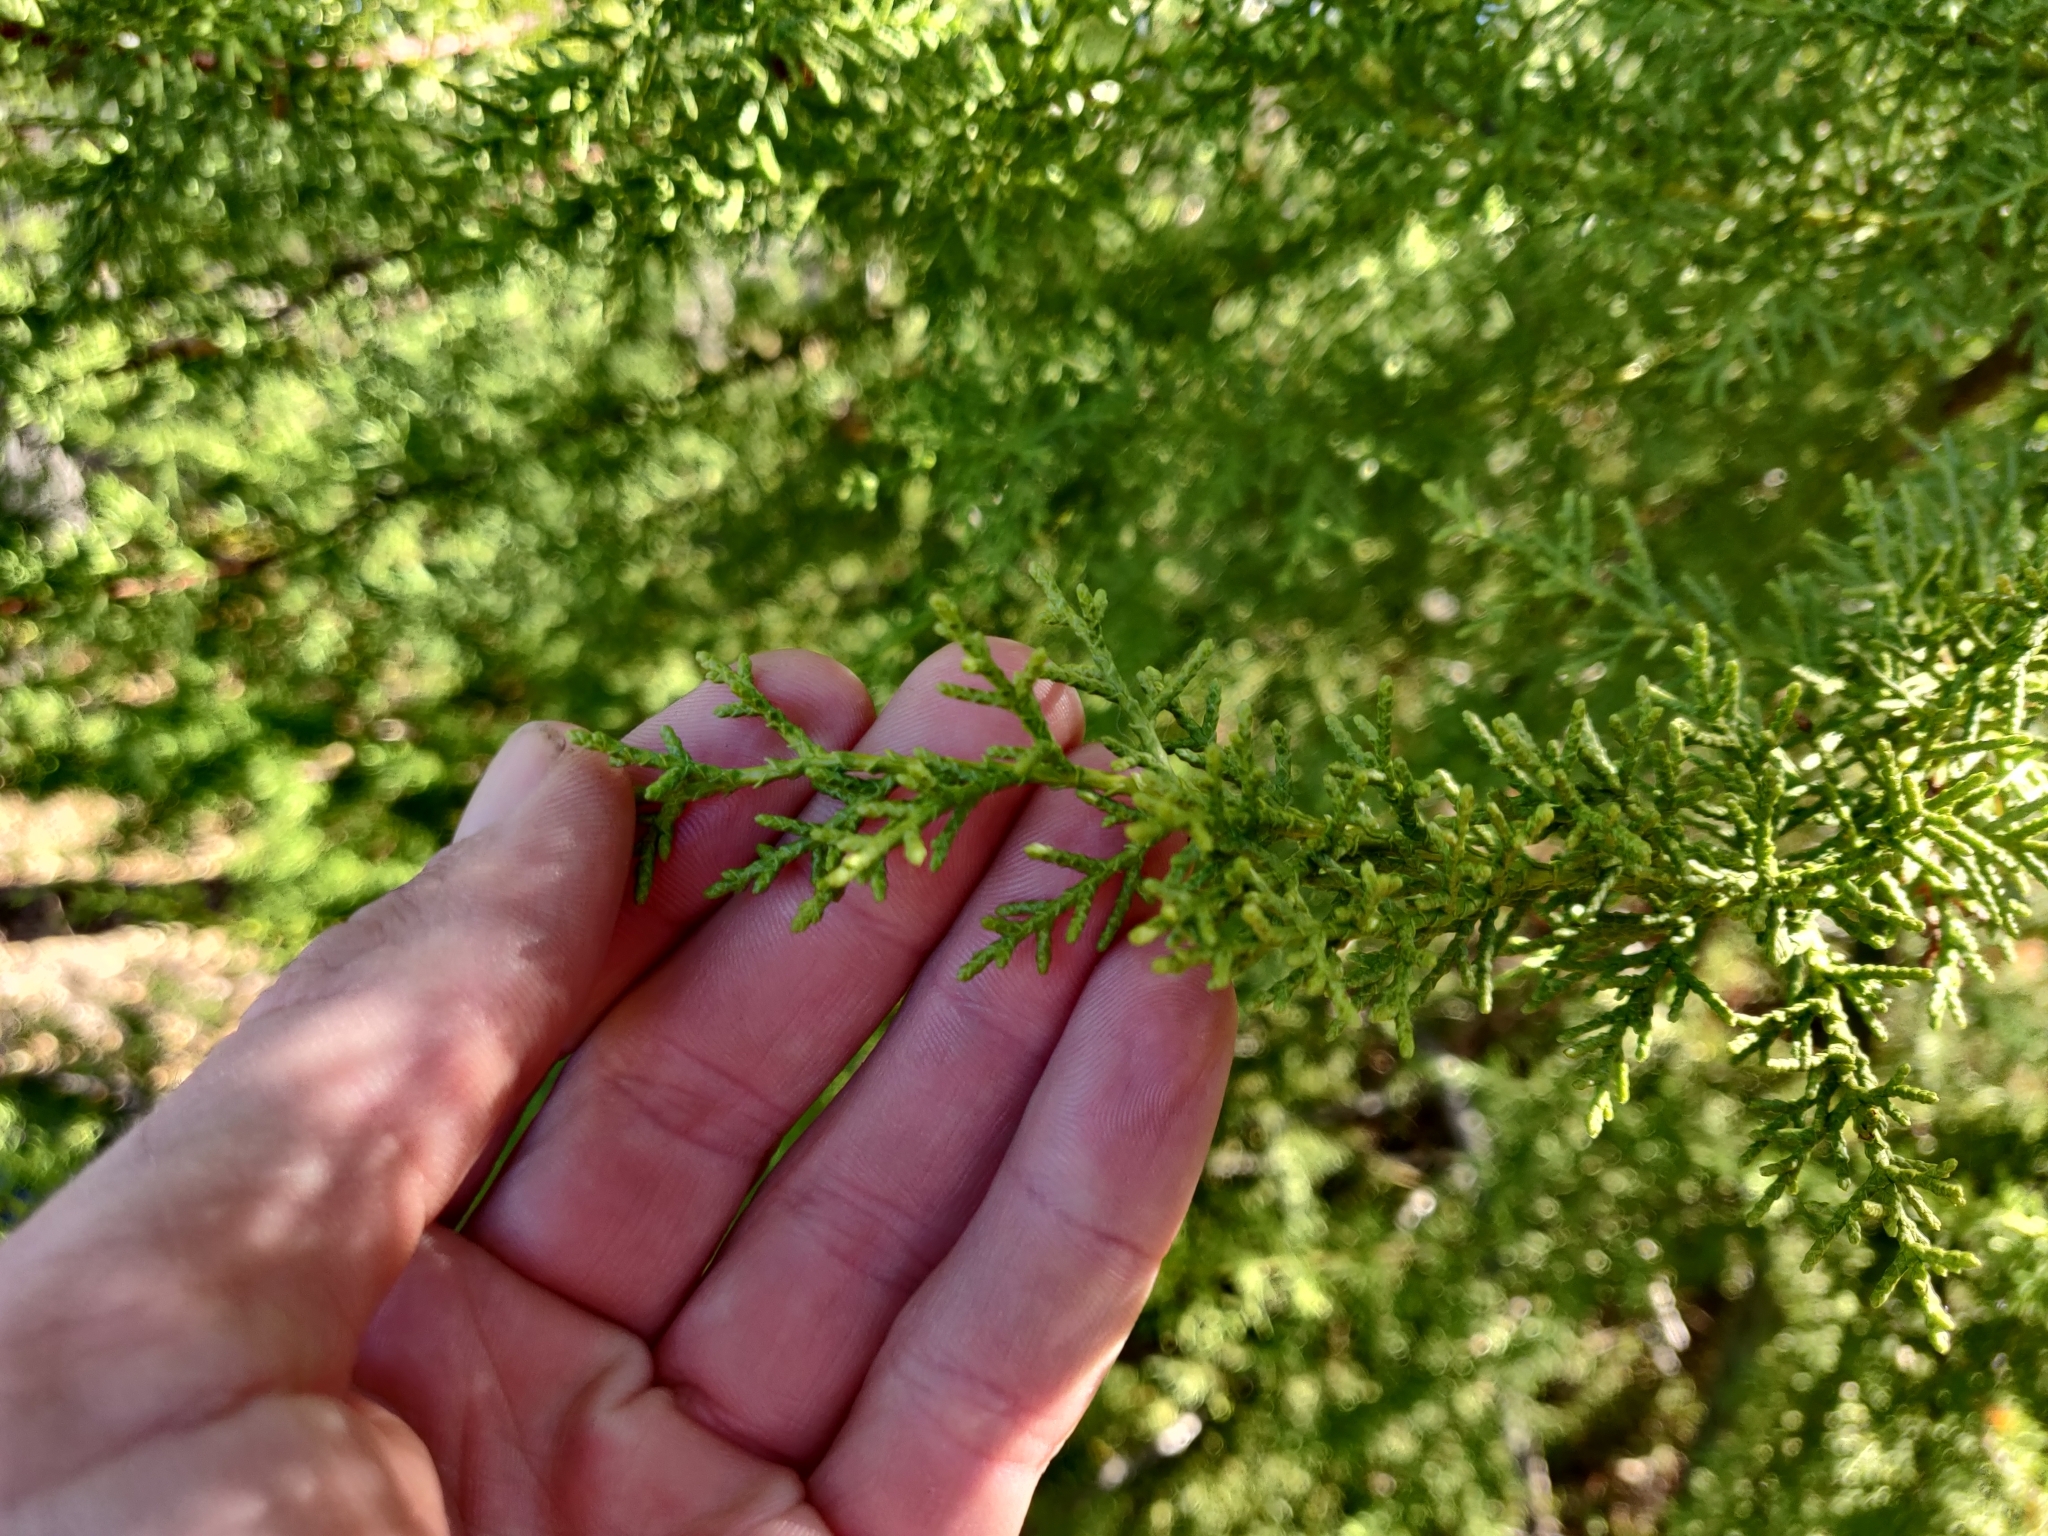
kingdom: Plantae
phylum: Tracheophyta
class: Pinopsida
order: Pinales
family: Cupressaceae
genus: Cupressus
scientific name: Cupressus goveniana
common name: Gowen cypress
